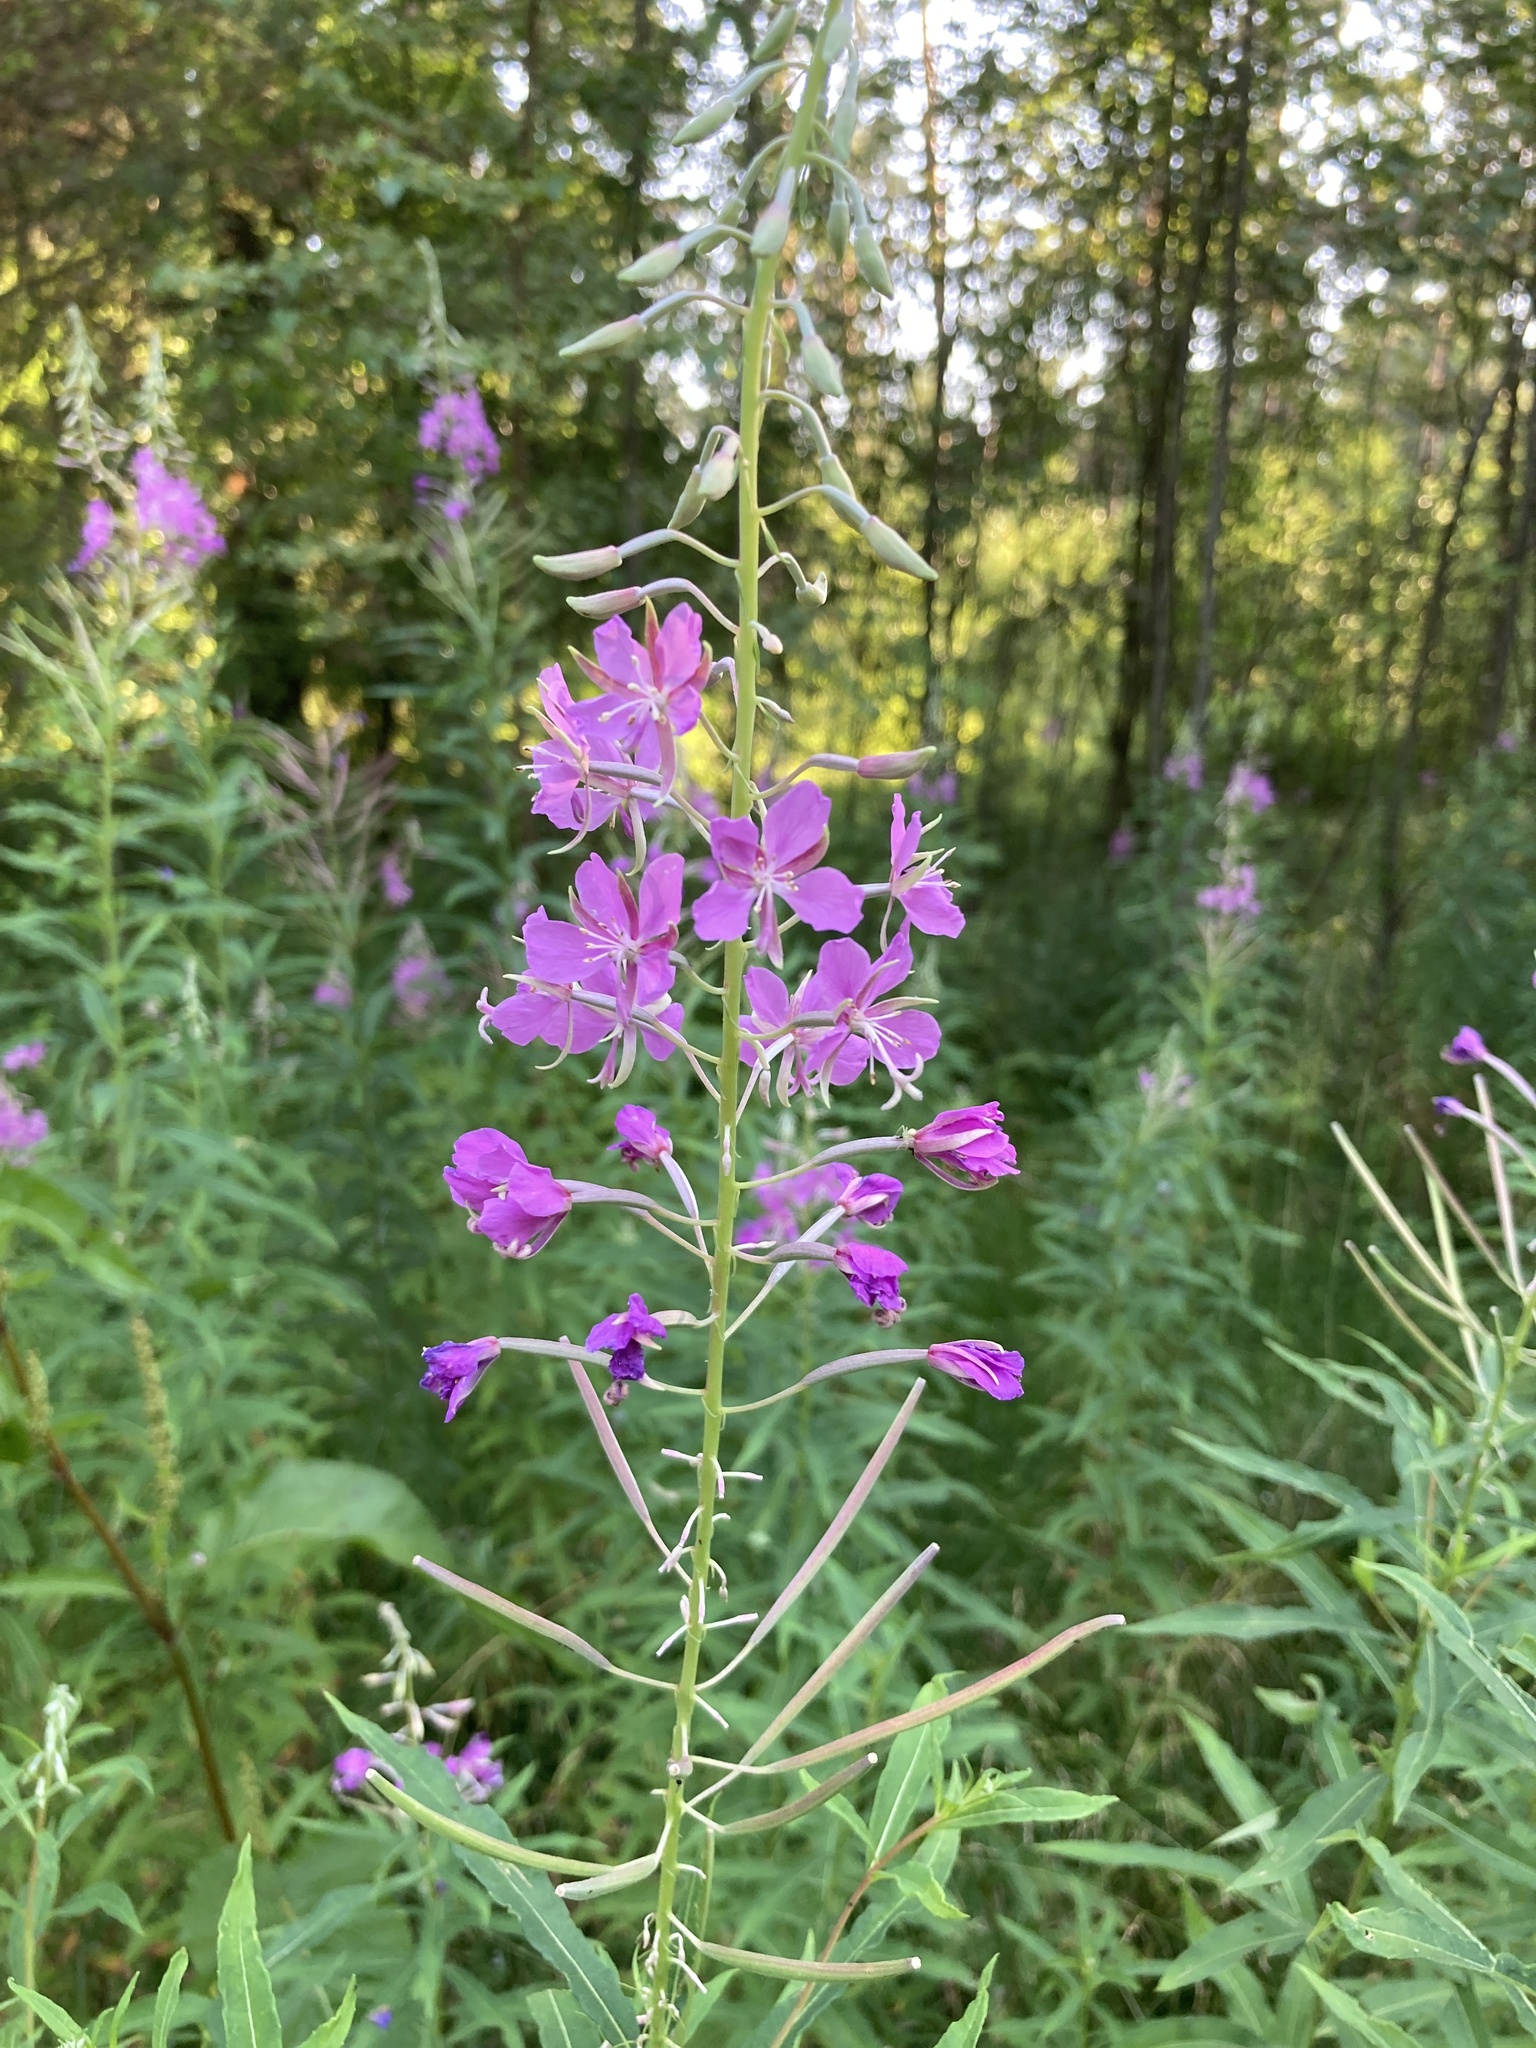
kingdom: Plantae
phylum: Tracheophyta
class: Magnoliopsida
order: Myrtales
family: Onagraceae
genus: Chamaenerion
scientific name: Chamaenerion angustifolium
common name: Fireweed
